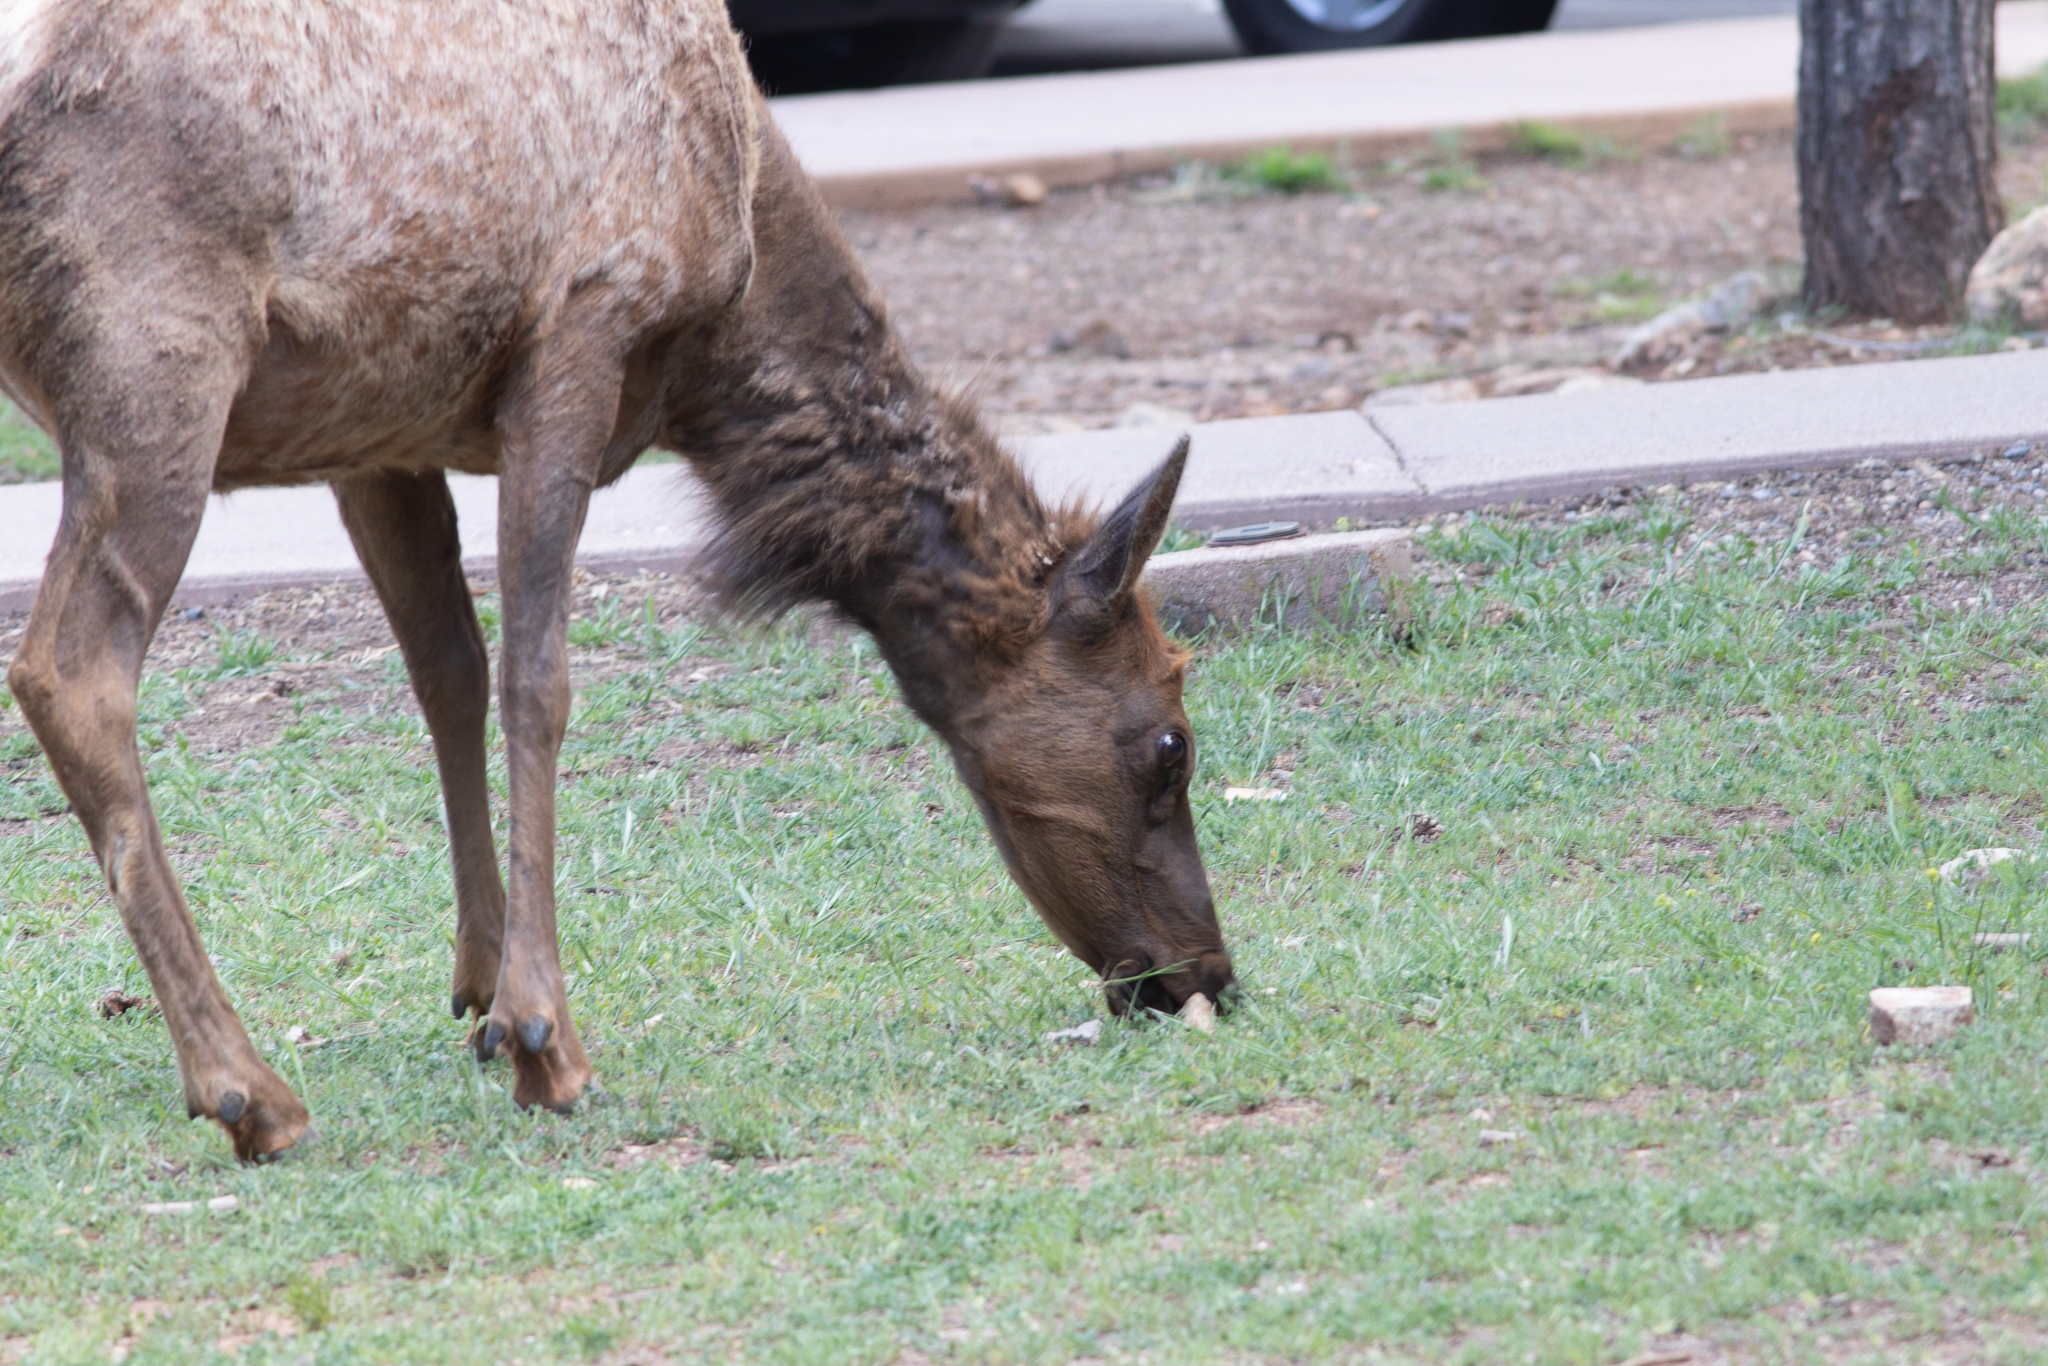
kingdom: Animalia
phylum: Chordata
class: Mammalia
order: Artiodactyla
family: Cervidae
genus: Cervus
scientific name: Cervus elaphus
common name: Red deer
